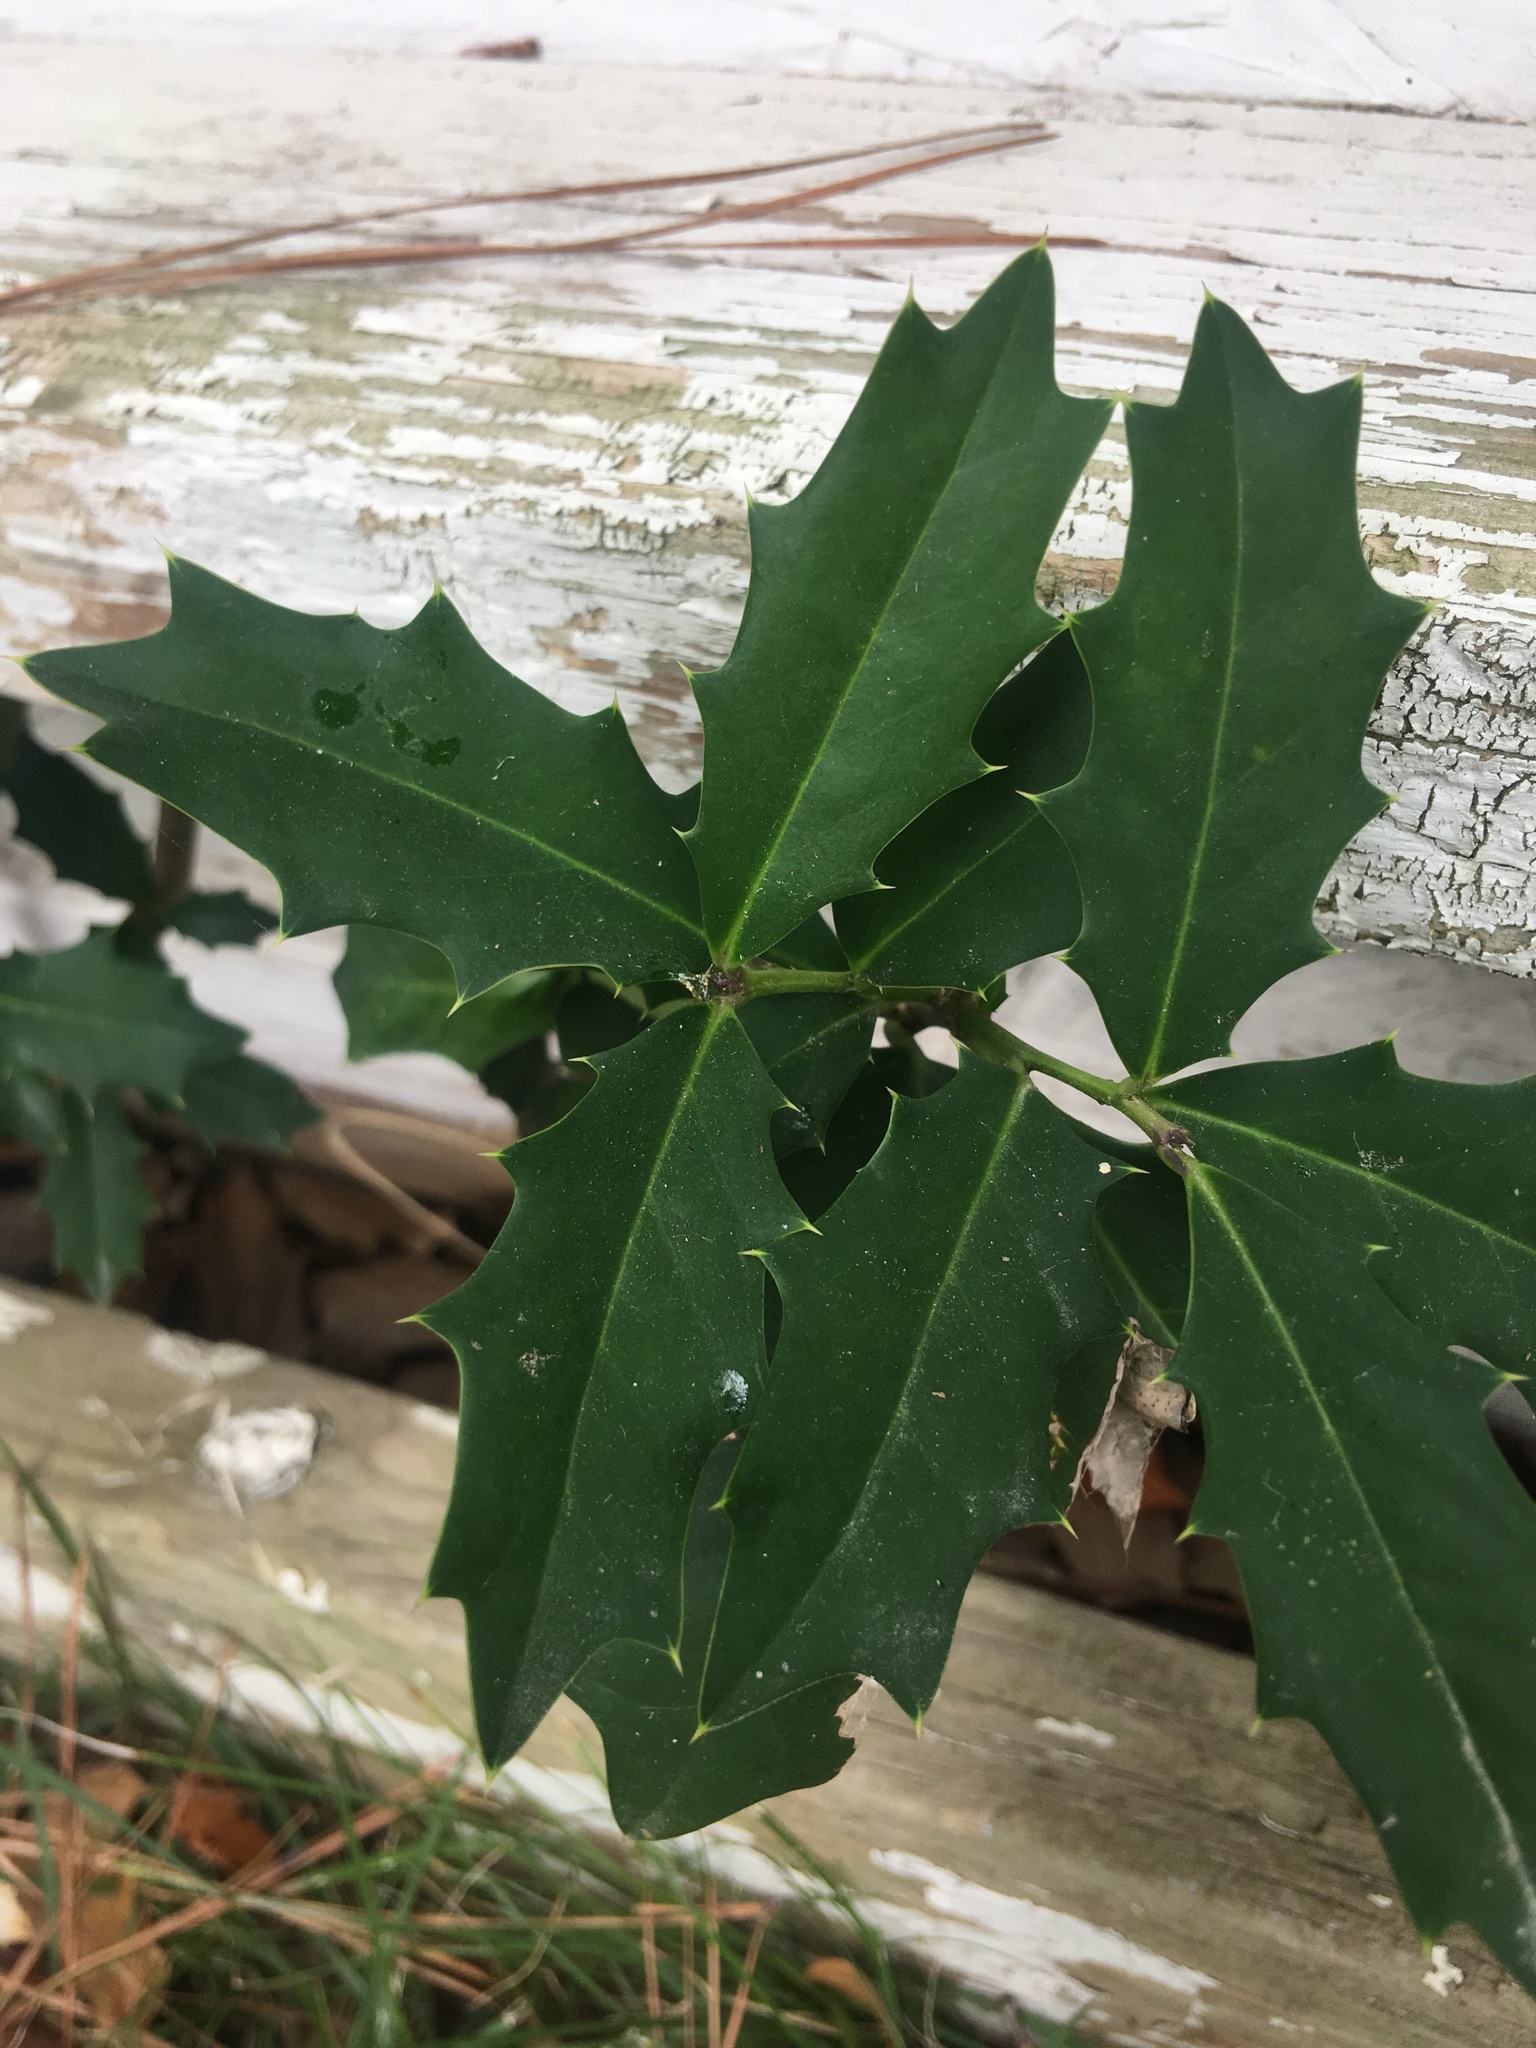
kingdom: Plantae
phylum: Tracheophyta
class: Magnoliopsida
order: Aquifoliales
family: Aquifoliaceae
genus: Ilex
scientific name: Ilex opaca
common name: American holly
